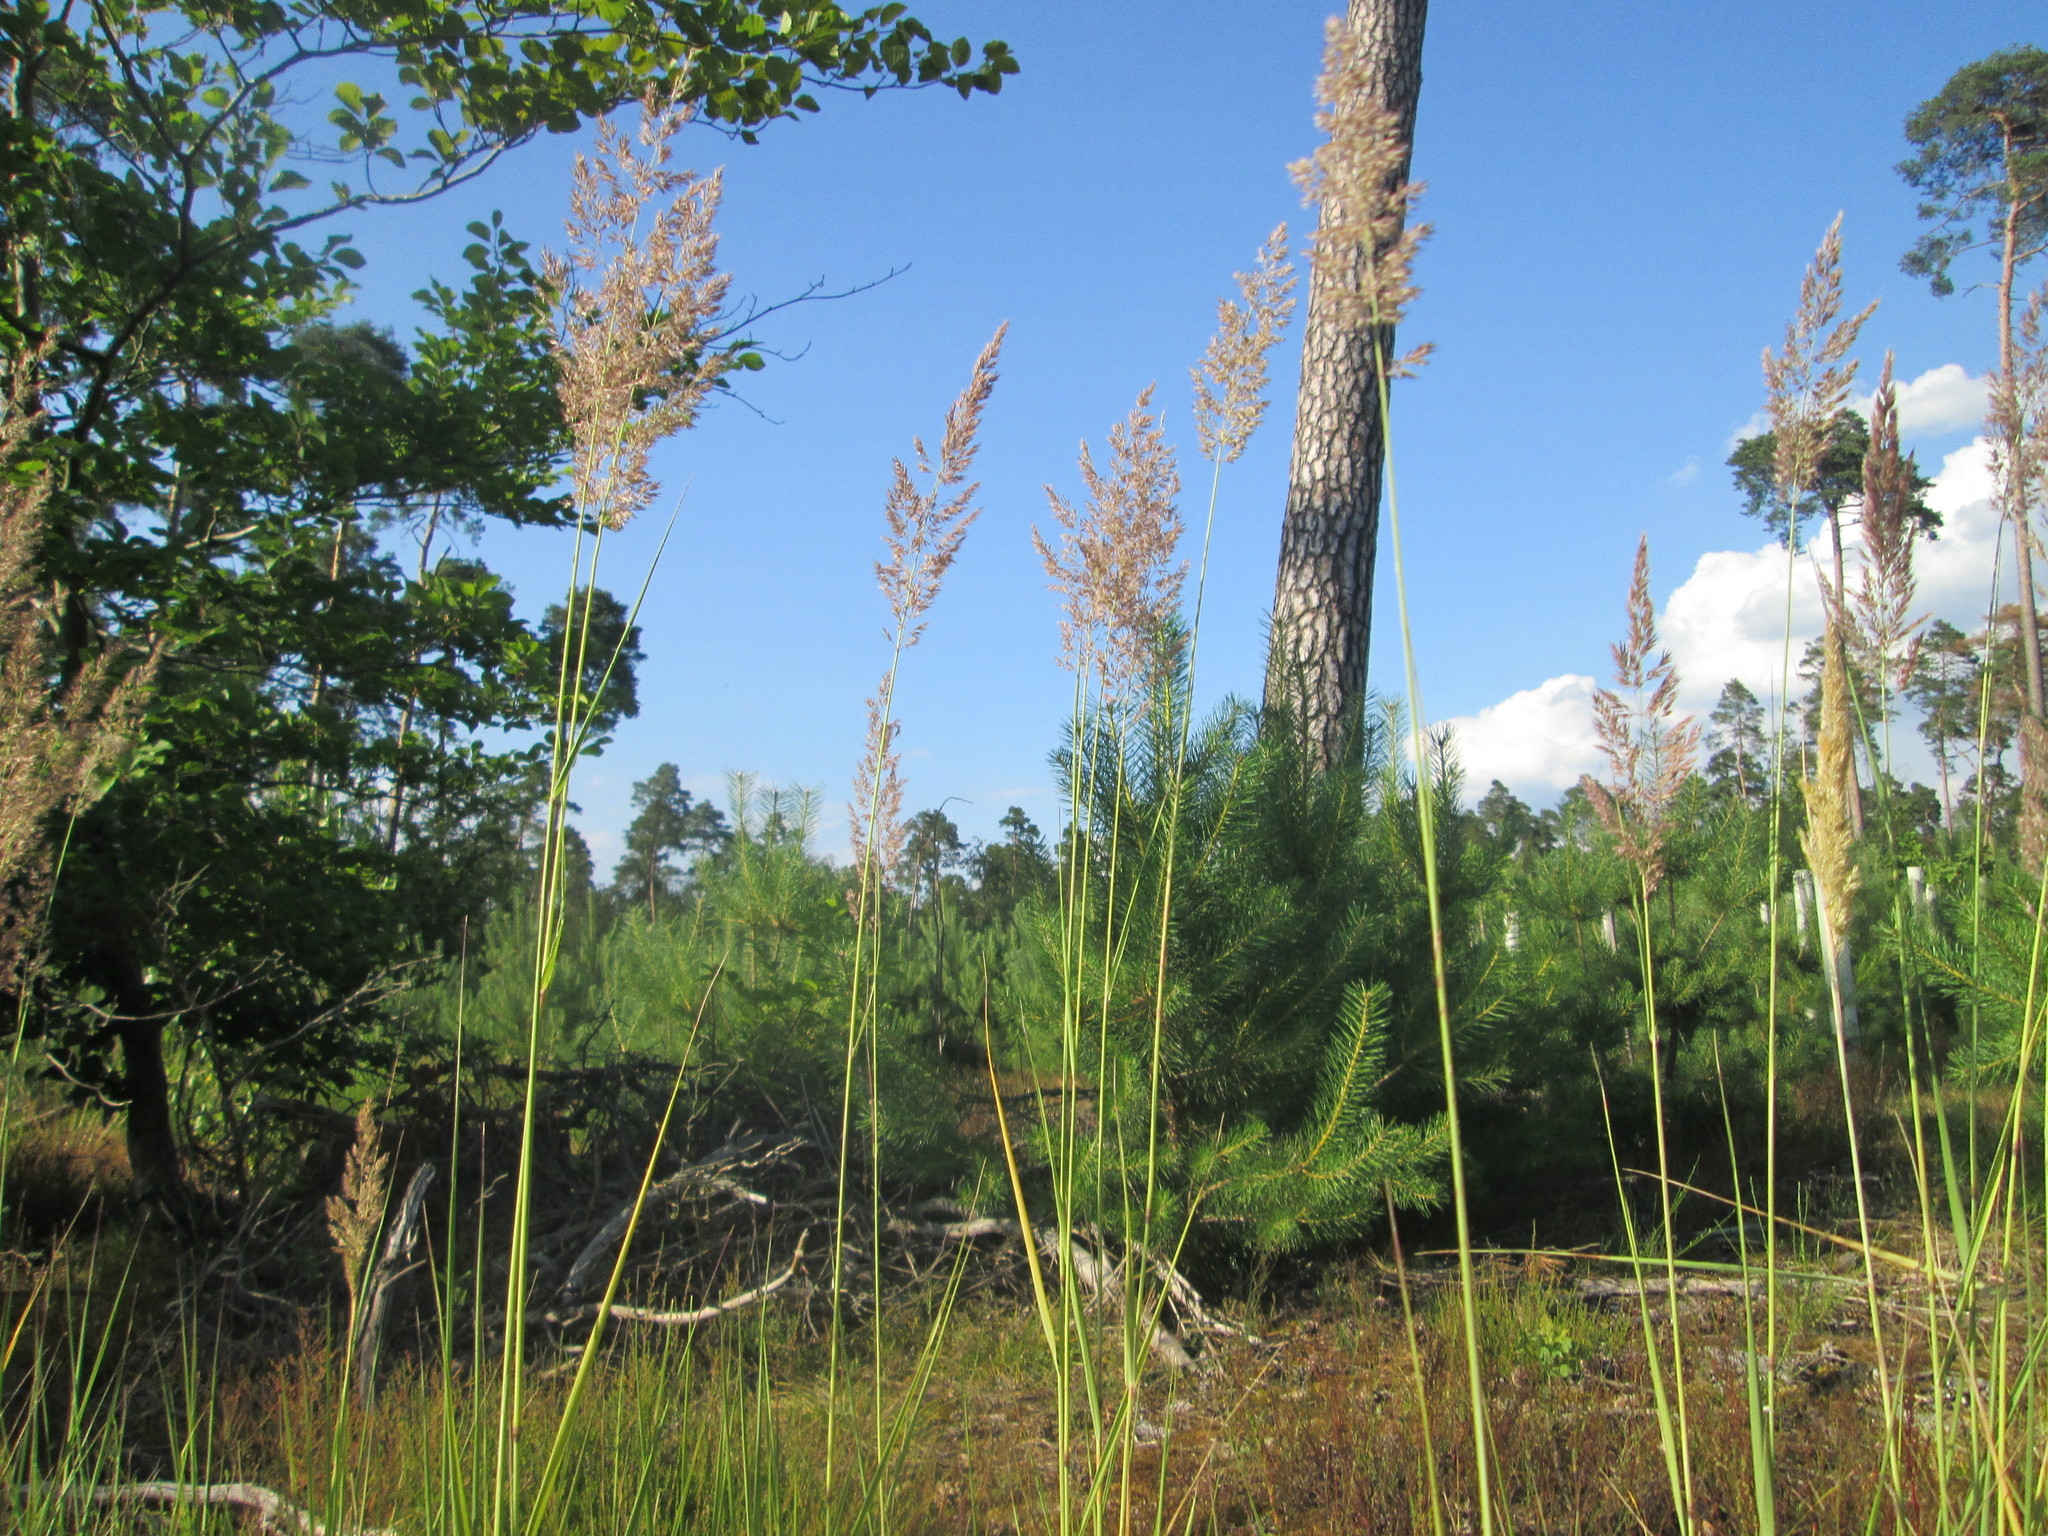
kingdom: Plantae
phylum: Tracheophyta
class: Liliopsida
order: Poales
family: Poaceae
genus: Holcus
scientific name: Holcus lanatus
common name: Yorkshire-fog
